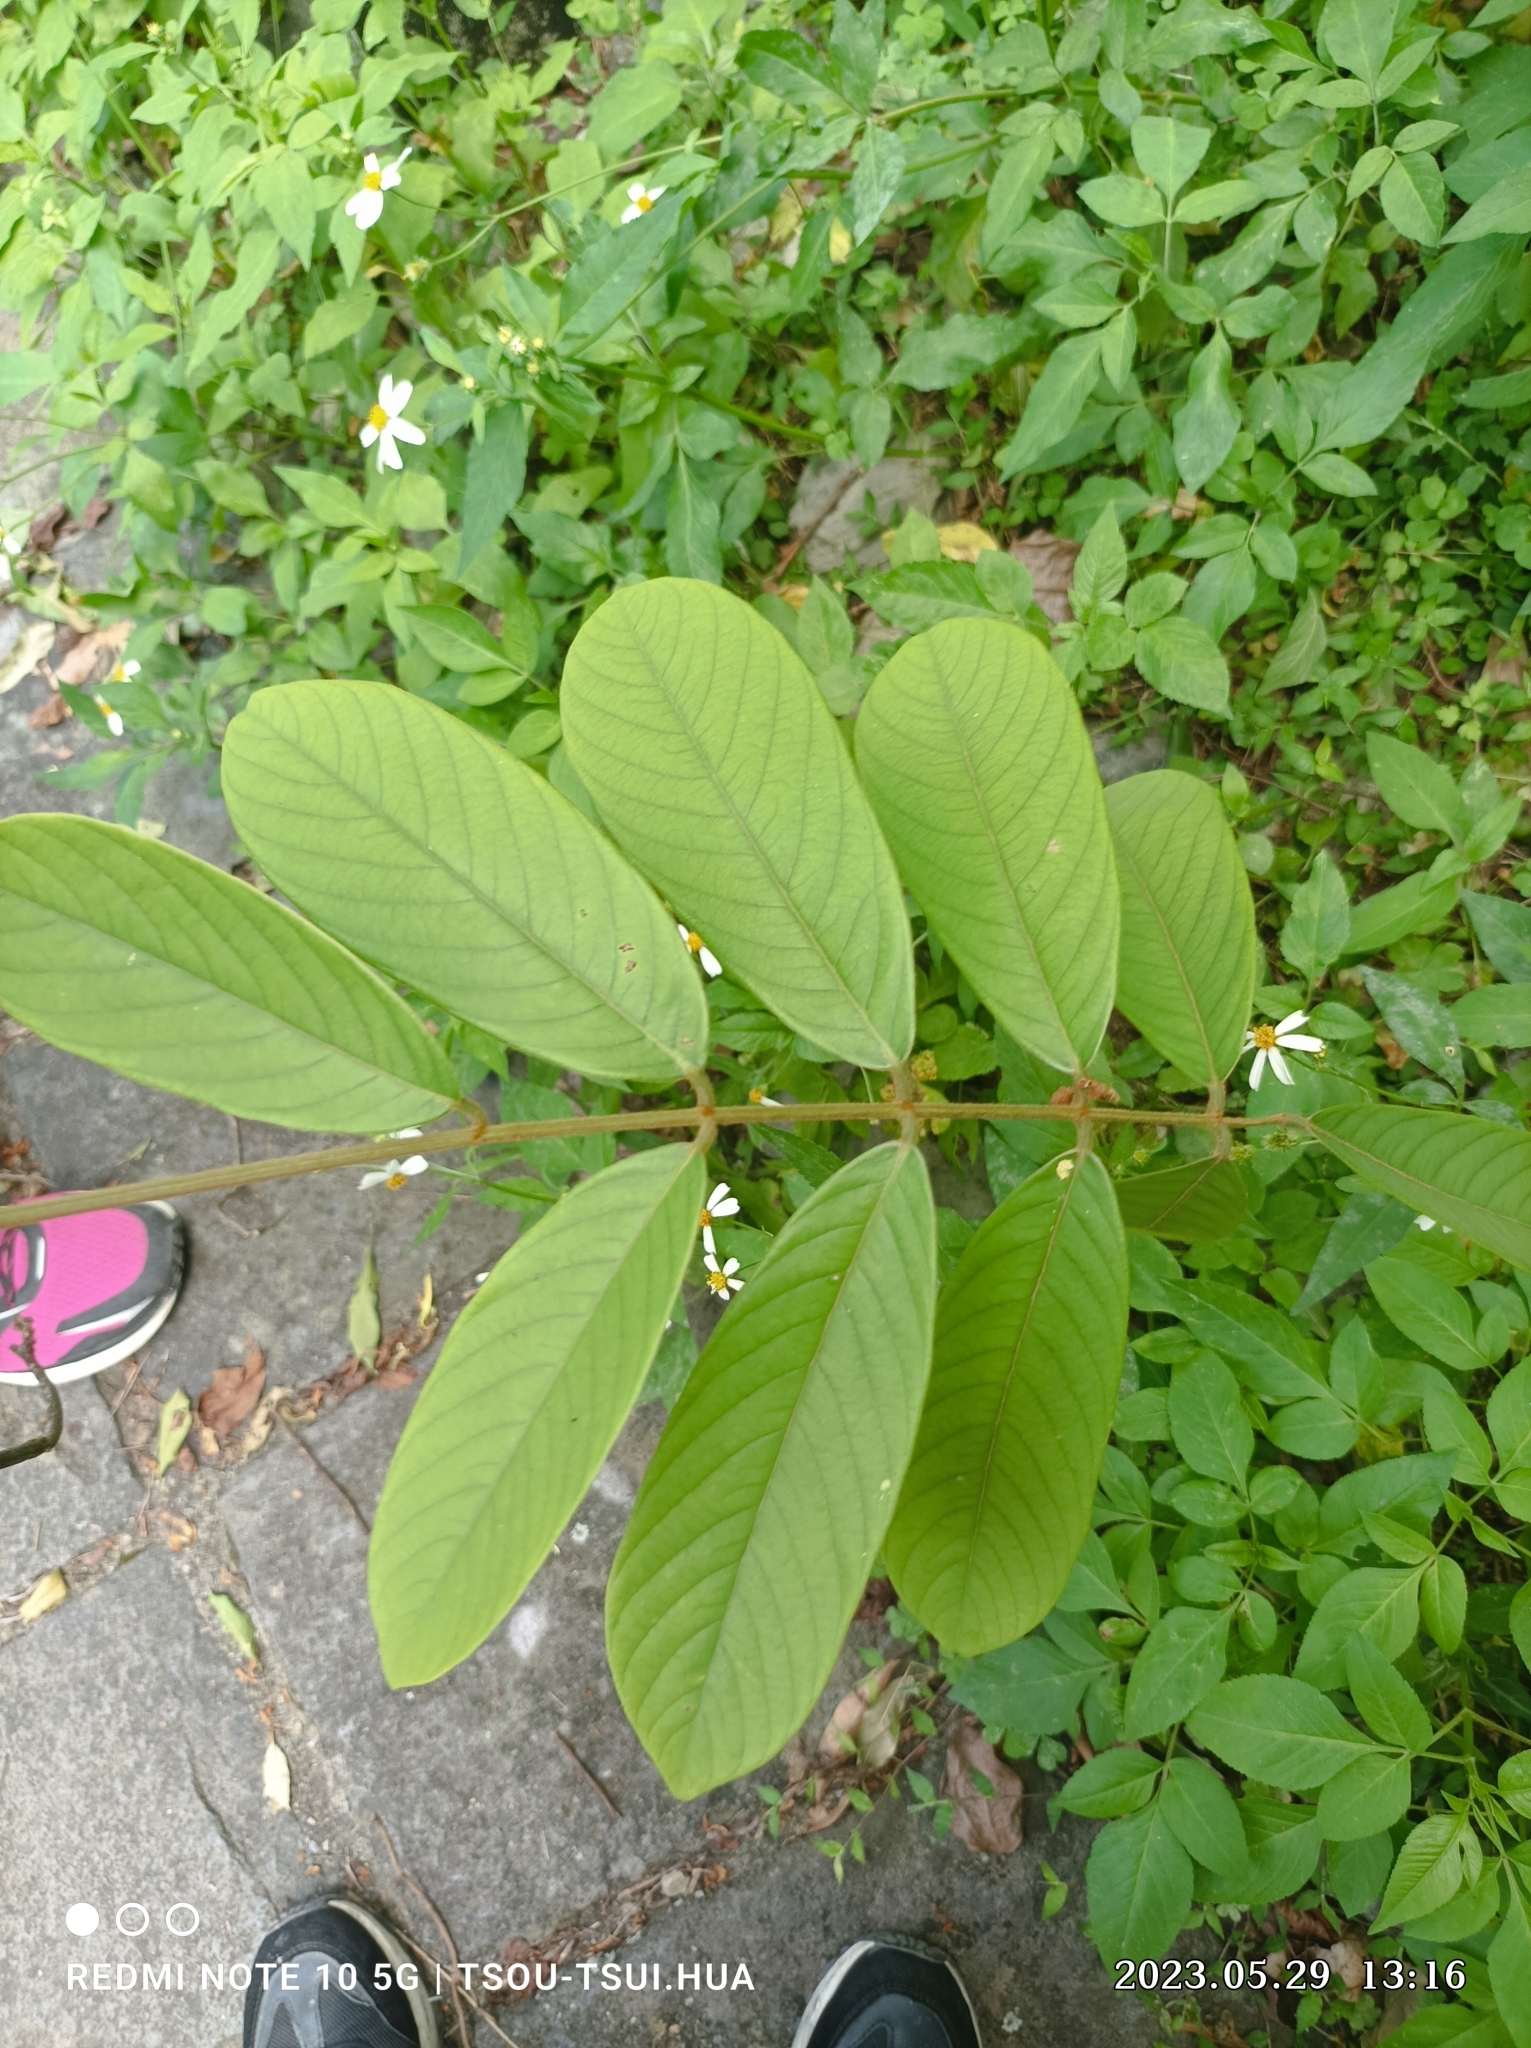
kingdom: Plantae
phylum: Tracheophyta
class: Magnoliopsida
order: Fabales
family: Fabaceae
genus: Millettia
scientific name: Millettia pachycarpa
